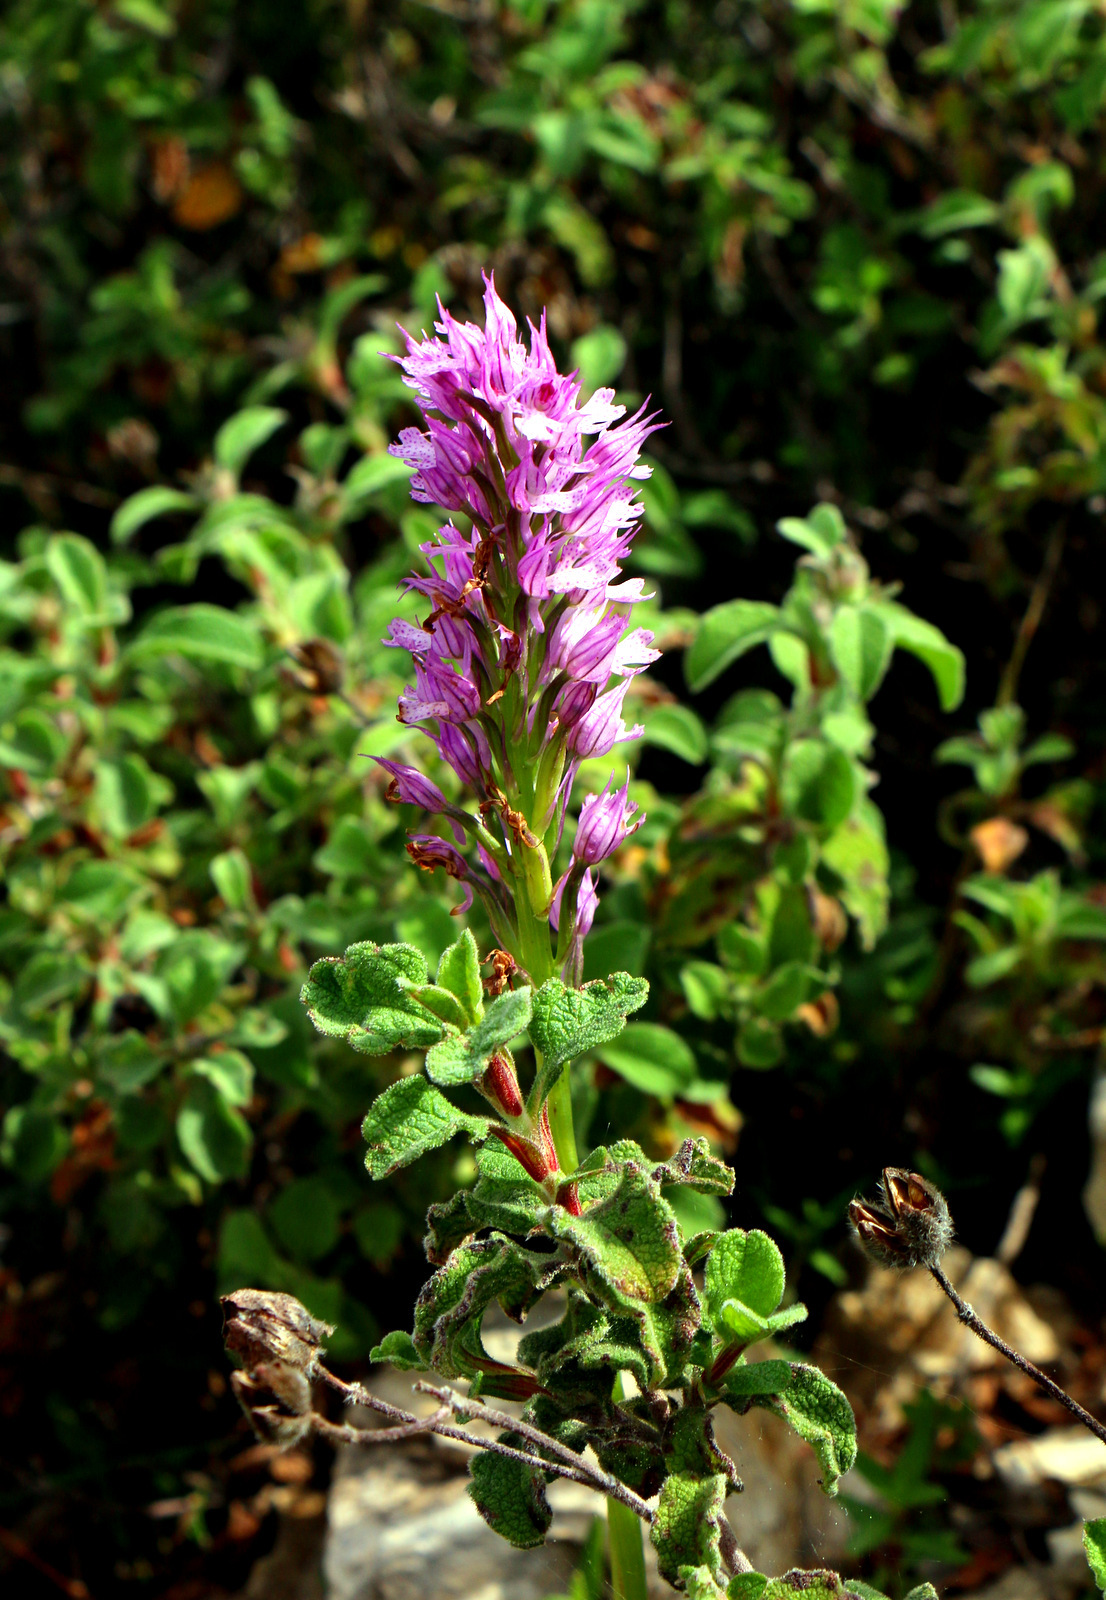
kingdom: Plantae
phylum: Tracheophyta
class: Liliopsida
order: Asparagales
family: Orchidaceae
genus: Neotinea
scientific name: Neotinea tridentata
